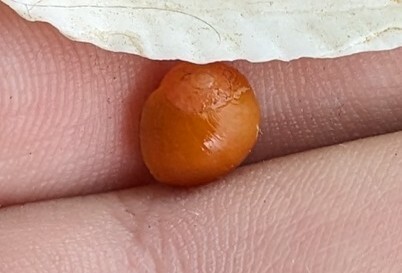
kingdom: Animalia
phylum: Mollusca
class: Gastropoda
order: Littorinimorpha
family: Littorinidae
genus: Littorina
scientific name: Littorina obtusata
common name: Flat periwinkle
